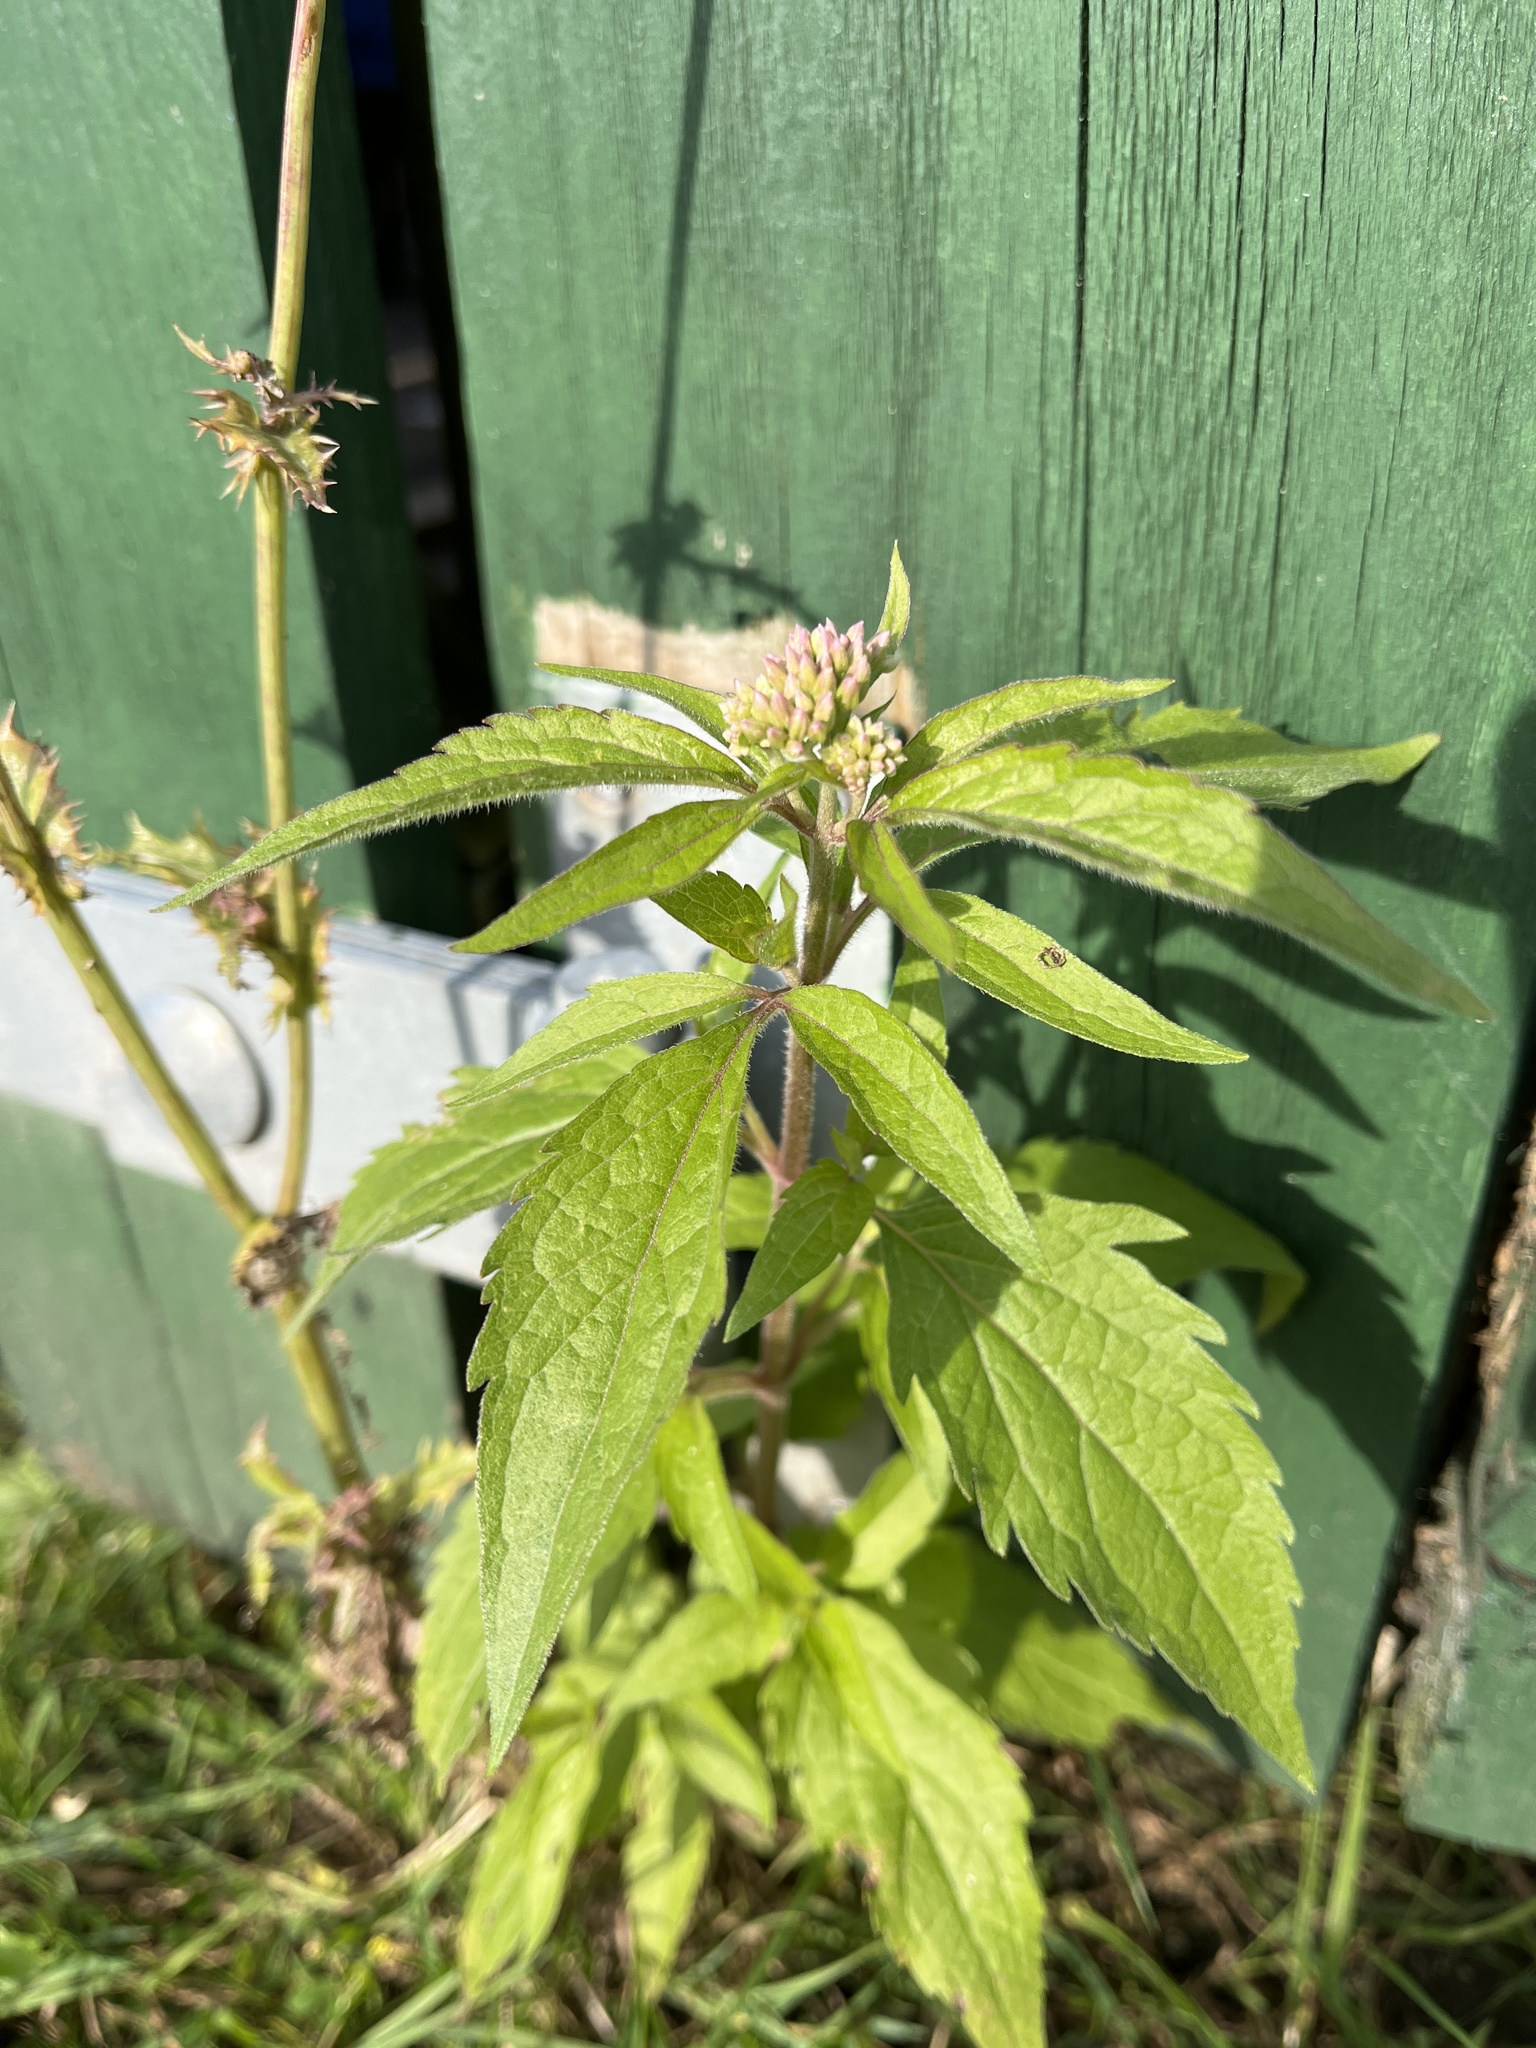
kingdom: Plantae
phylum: Tracheophyta
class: Magnoliopsida
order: Asterales
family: Asteraceae
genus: Eupatorium
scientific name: Eupatorium cannabinum
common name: Hemp-agrimony
